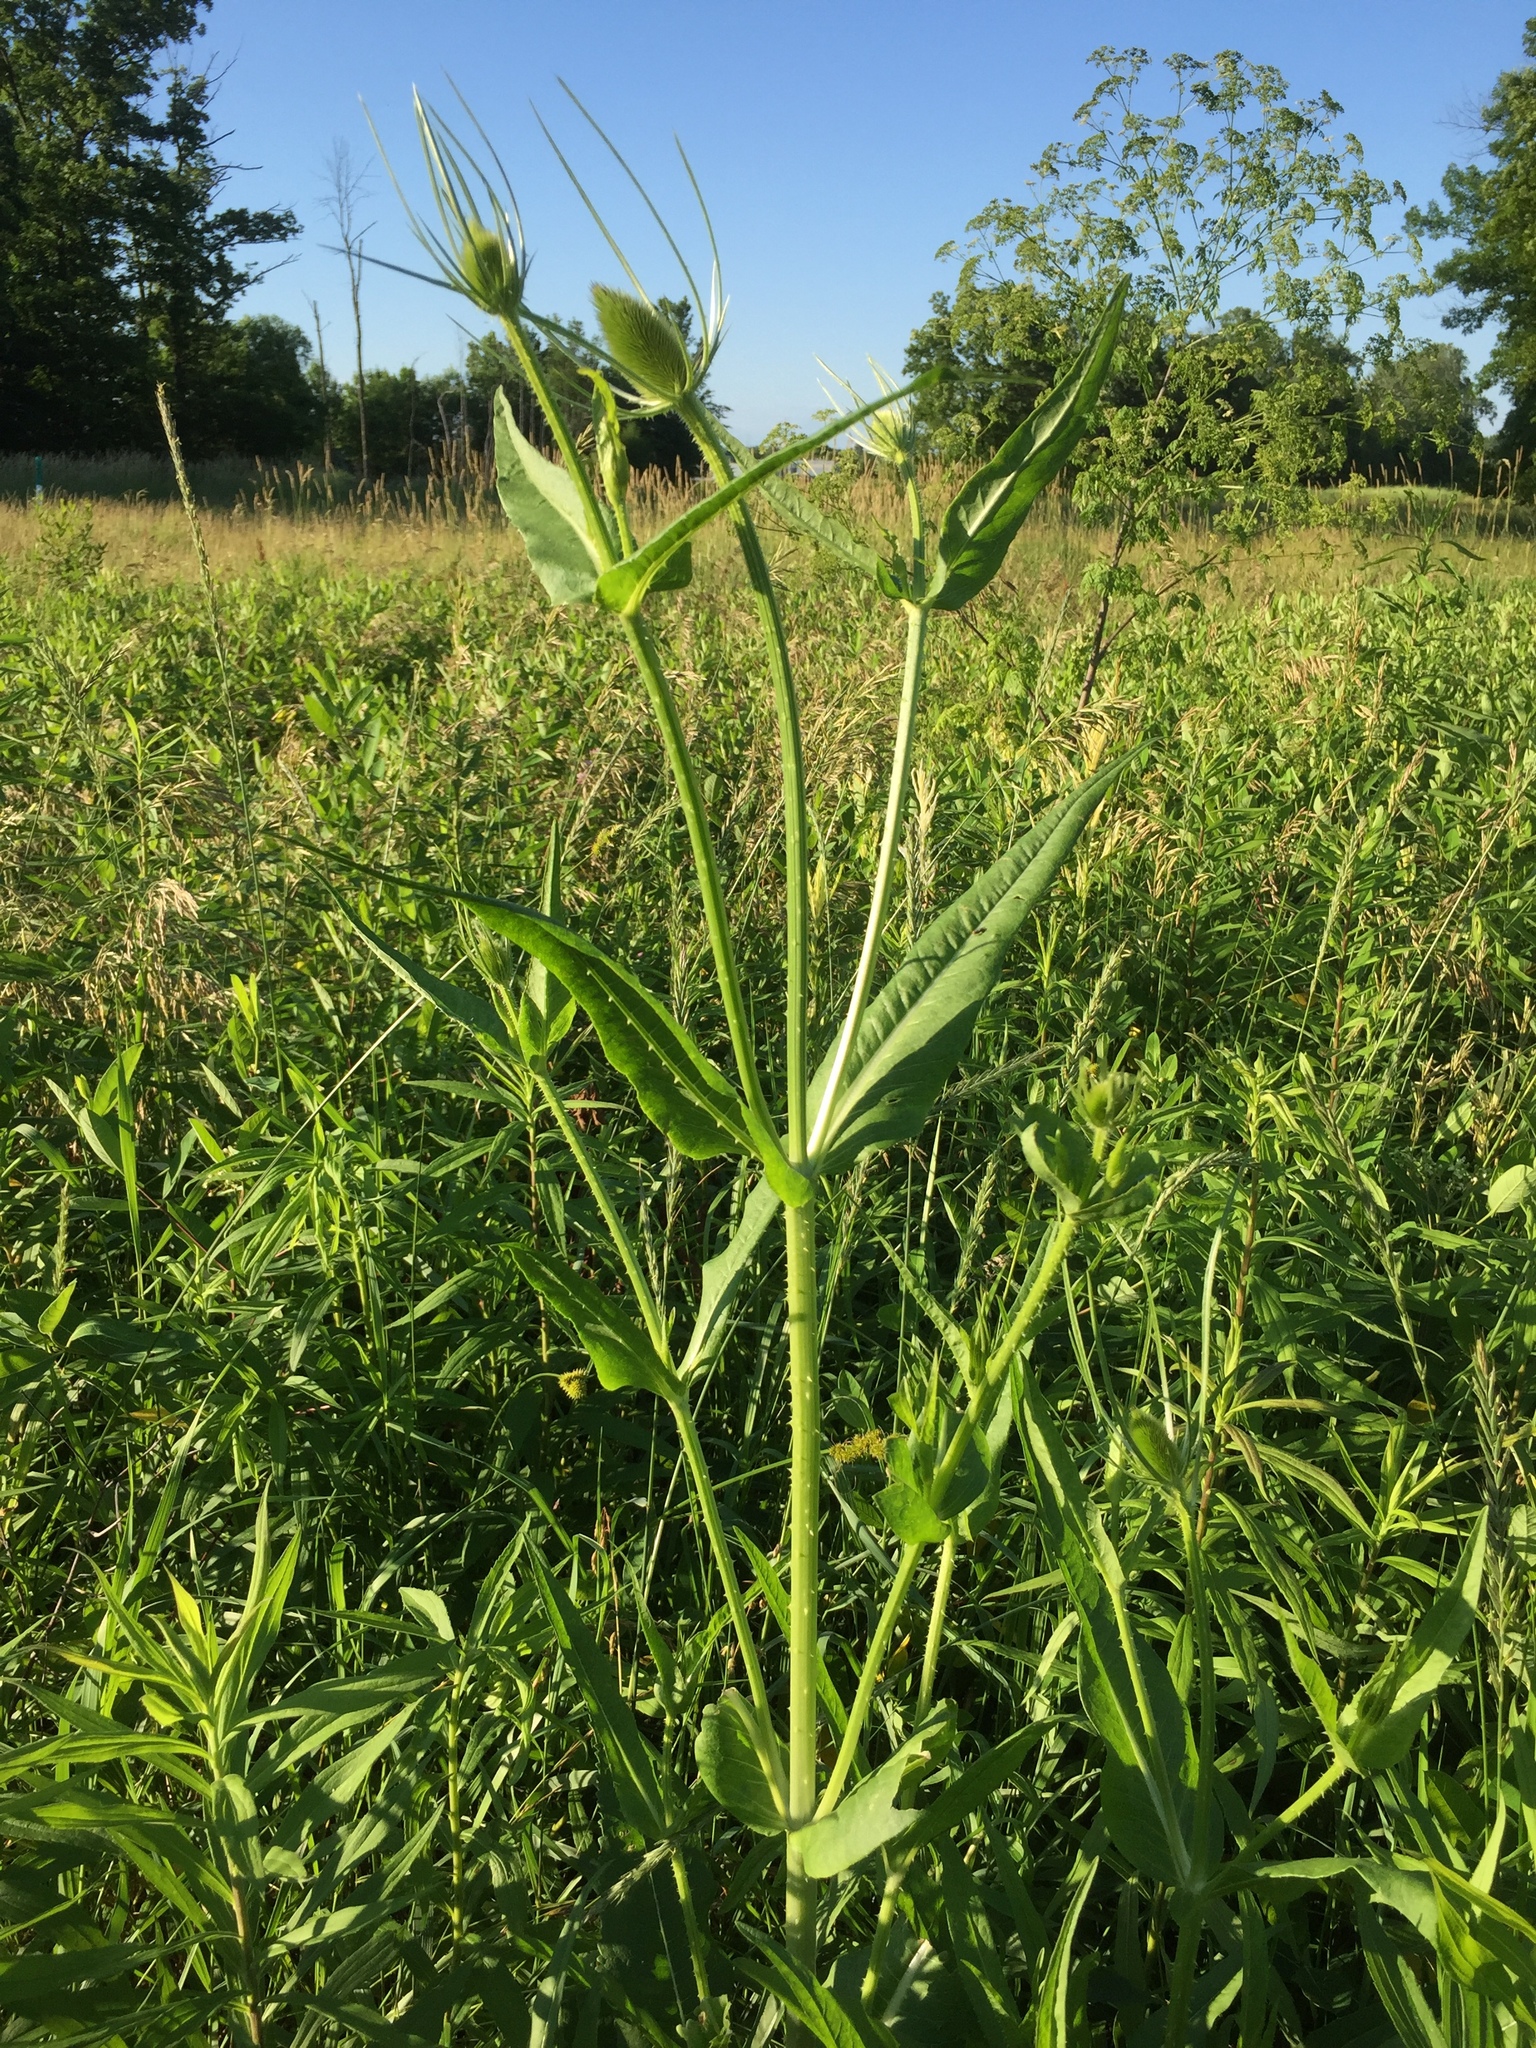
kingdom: Plantae
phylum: Tracheophyta
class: Magnoliopsida
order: Dipsacales
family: Caprifoliaceae
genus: Dipsacus
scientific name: Dipsacus fullonum
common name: Teasel
